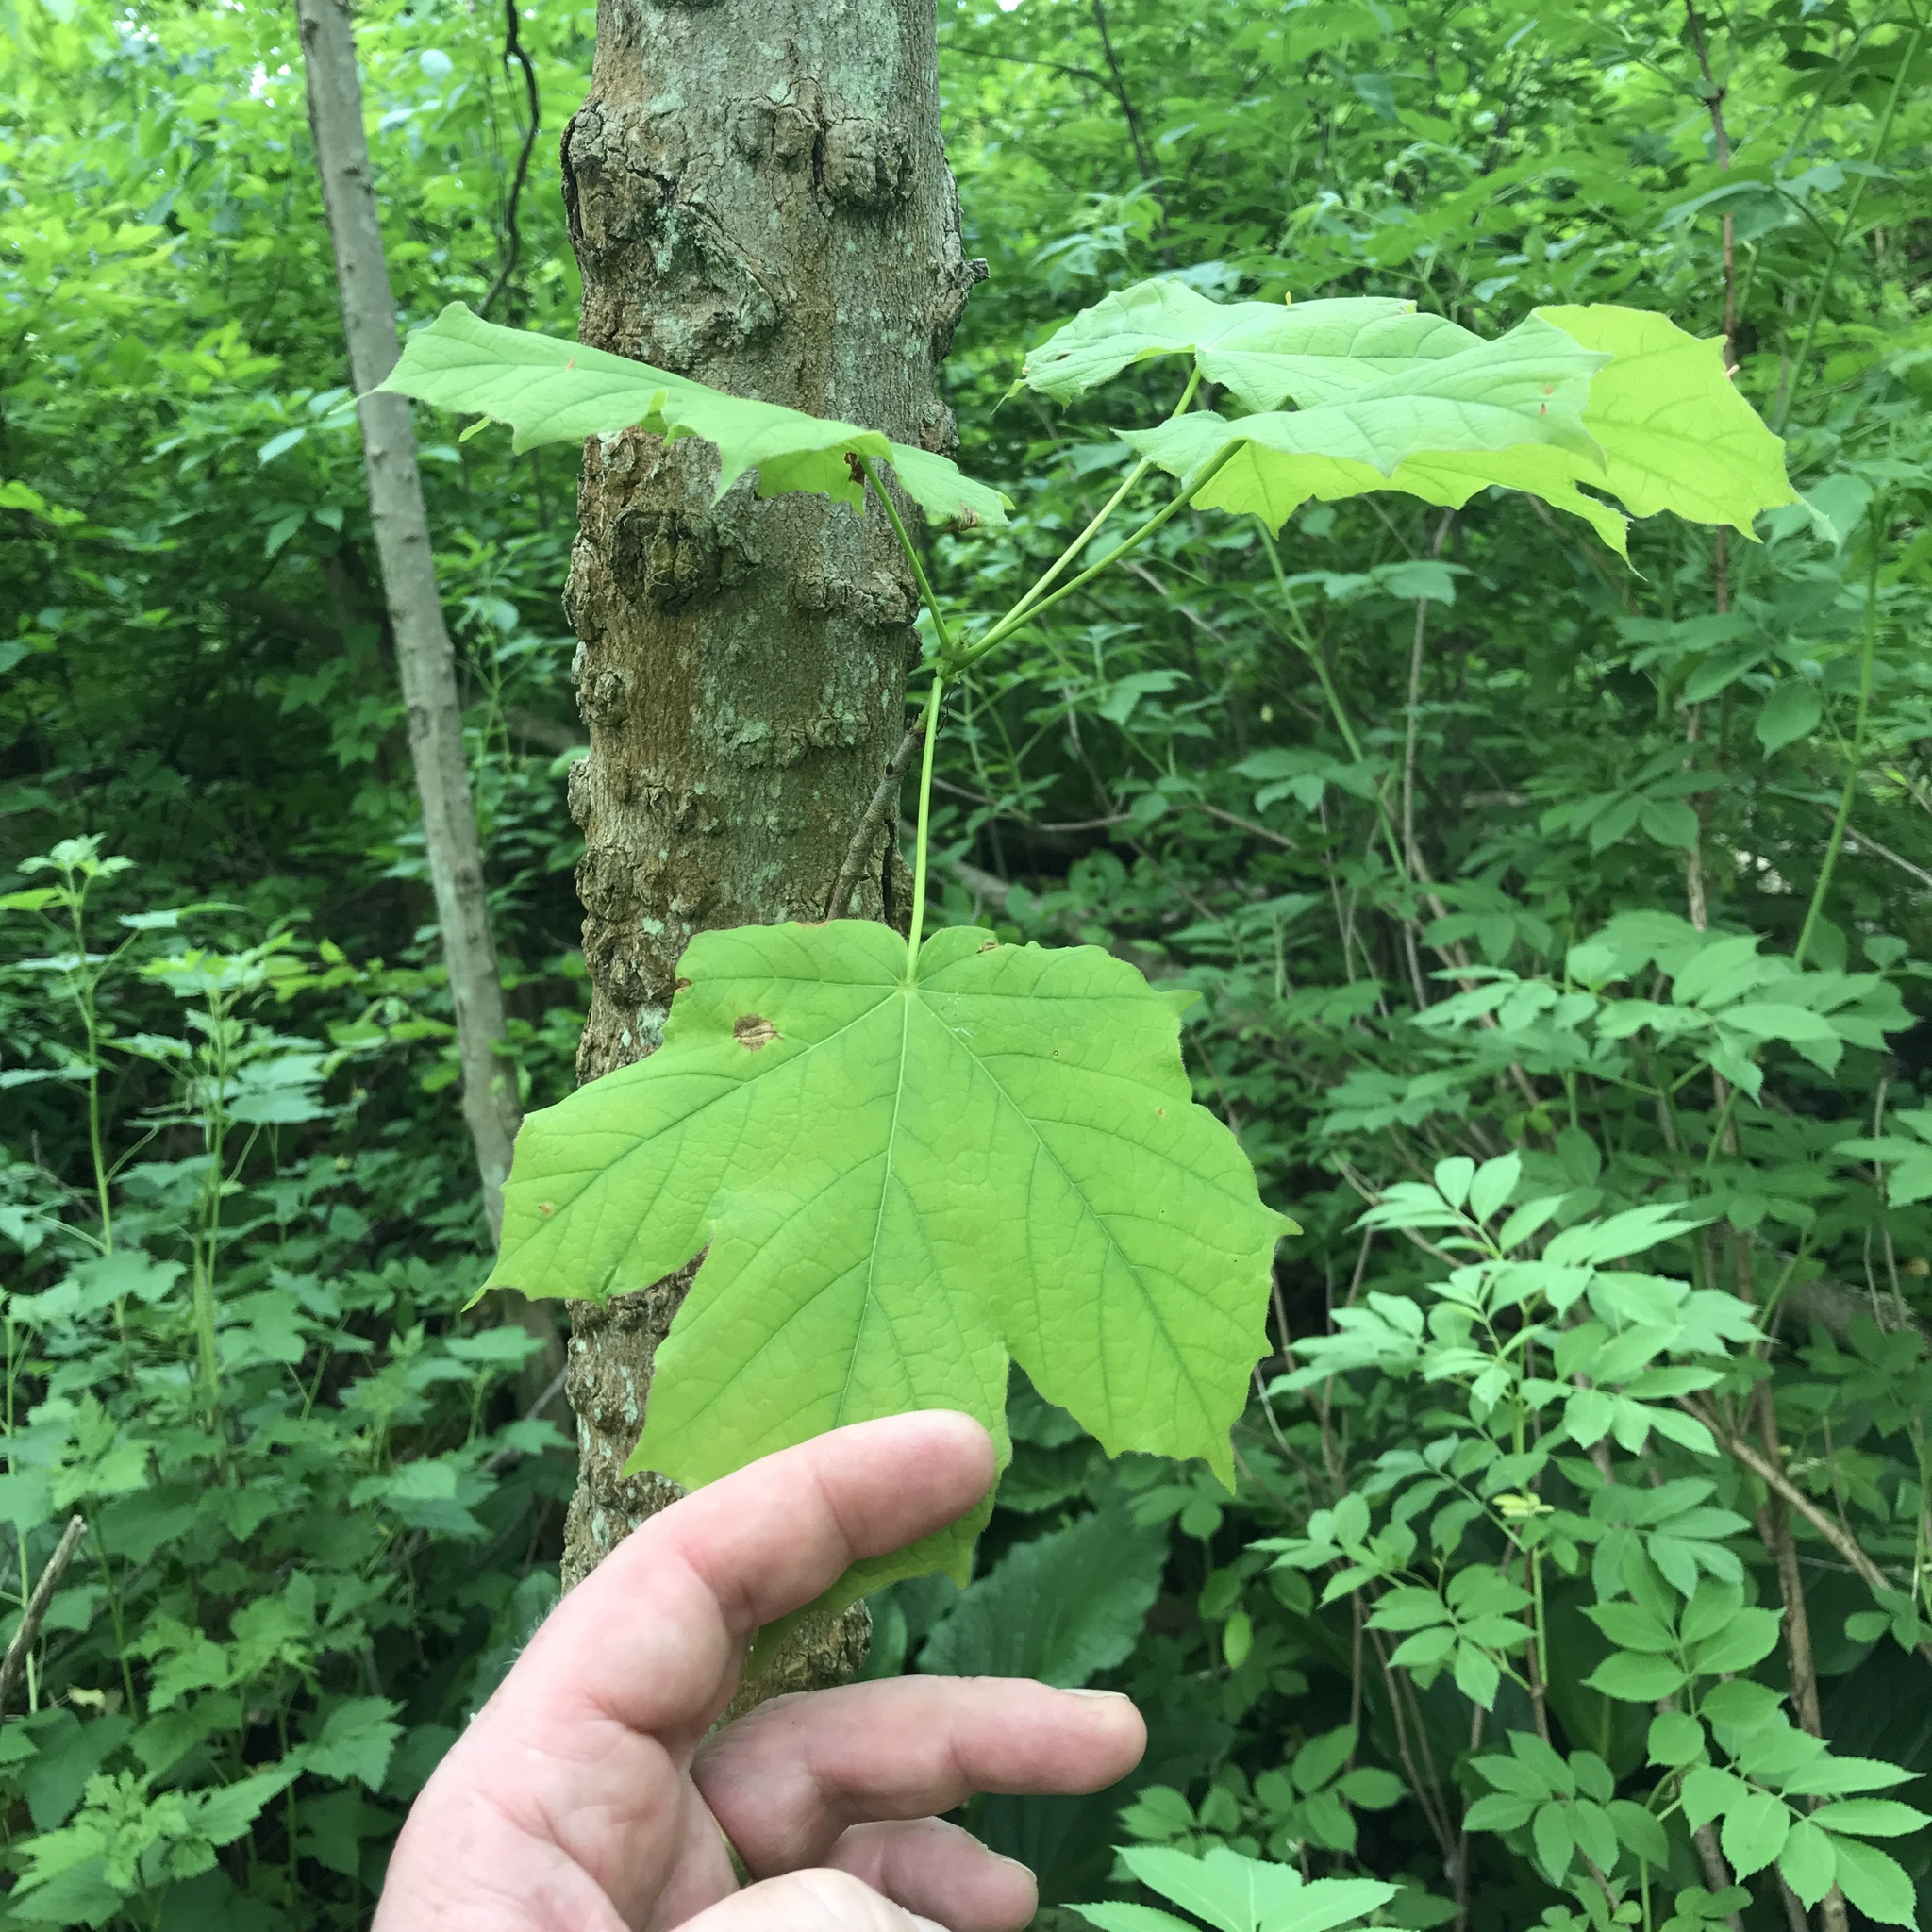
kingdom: Plantae
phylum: Tracheophyta
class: Magnoliopsida
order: Sapindales
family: Sapindaceae
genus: Acer
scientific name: Acer nigrum
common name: Black maple
